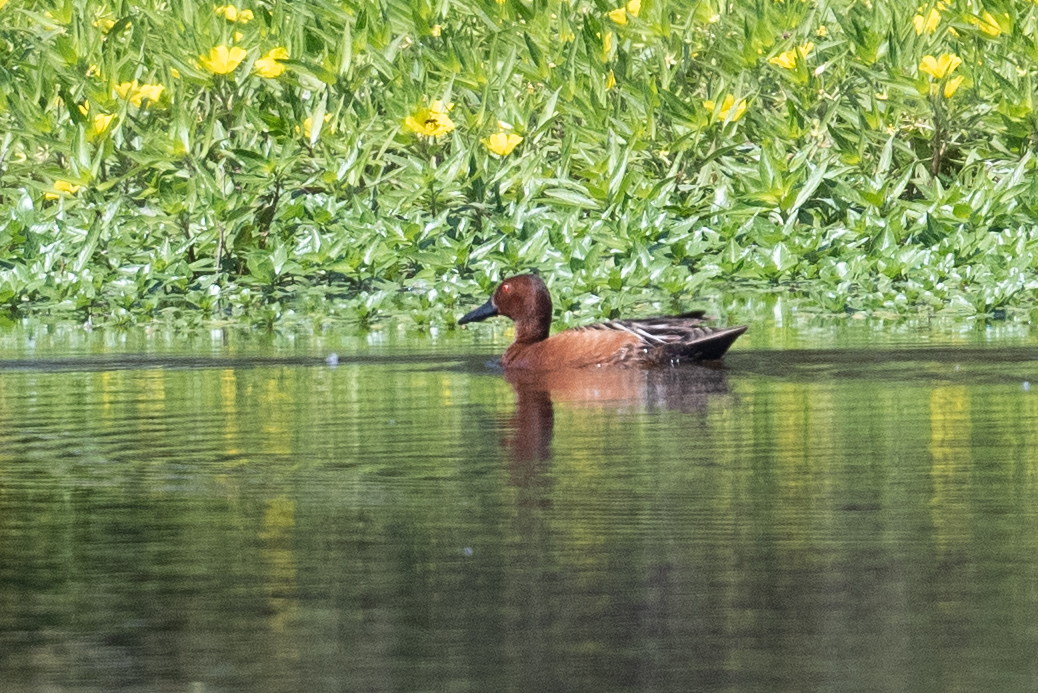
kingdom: Animalia
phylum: Chordata
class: Aves
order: Anseriformes
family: Anatidae
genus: Spatula
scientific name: Spatula cyanoptera
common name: Cinnamon teal
